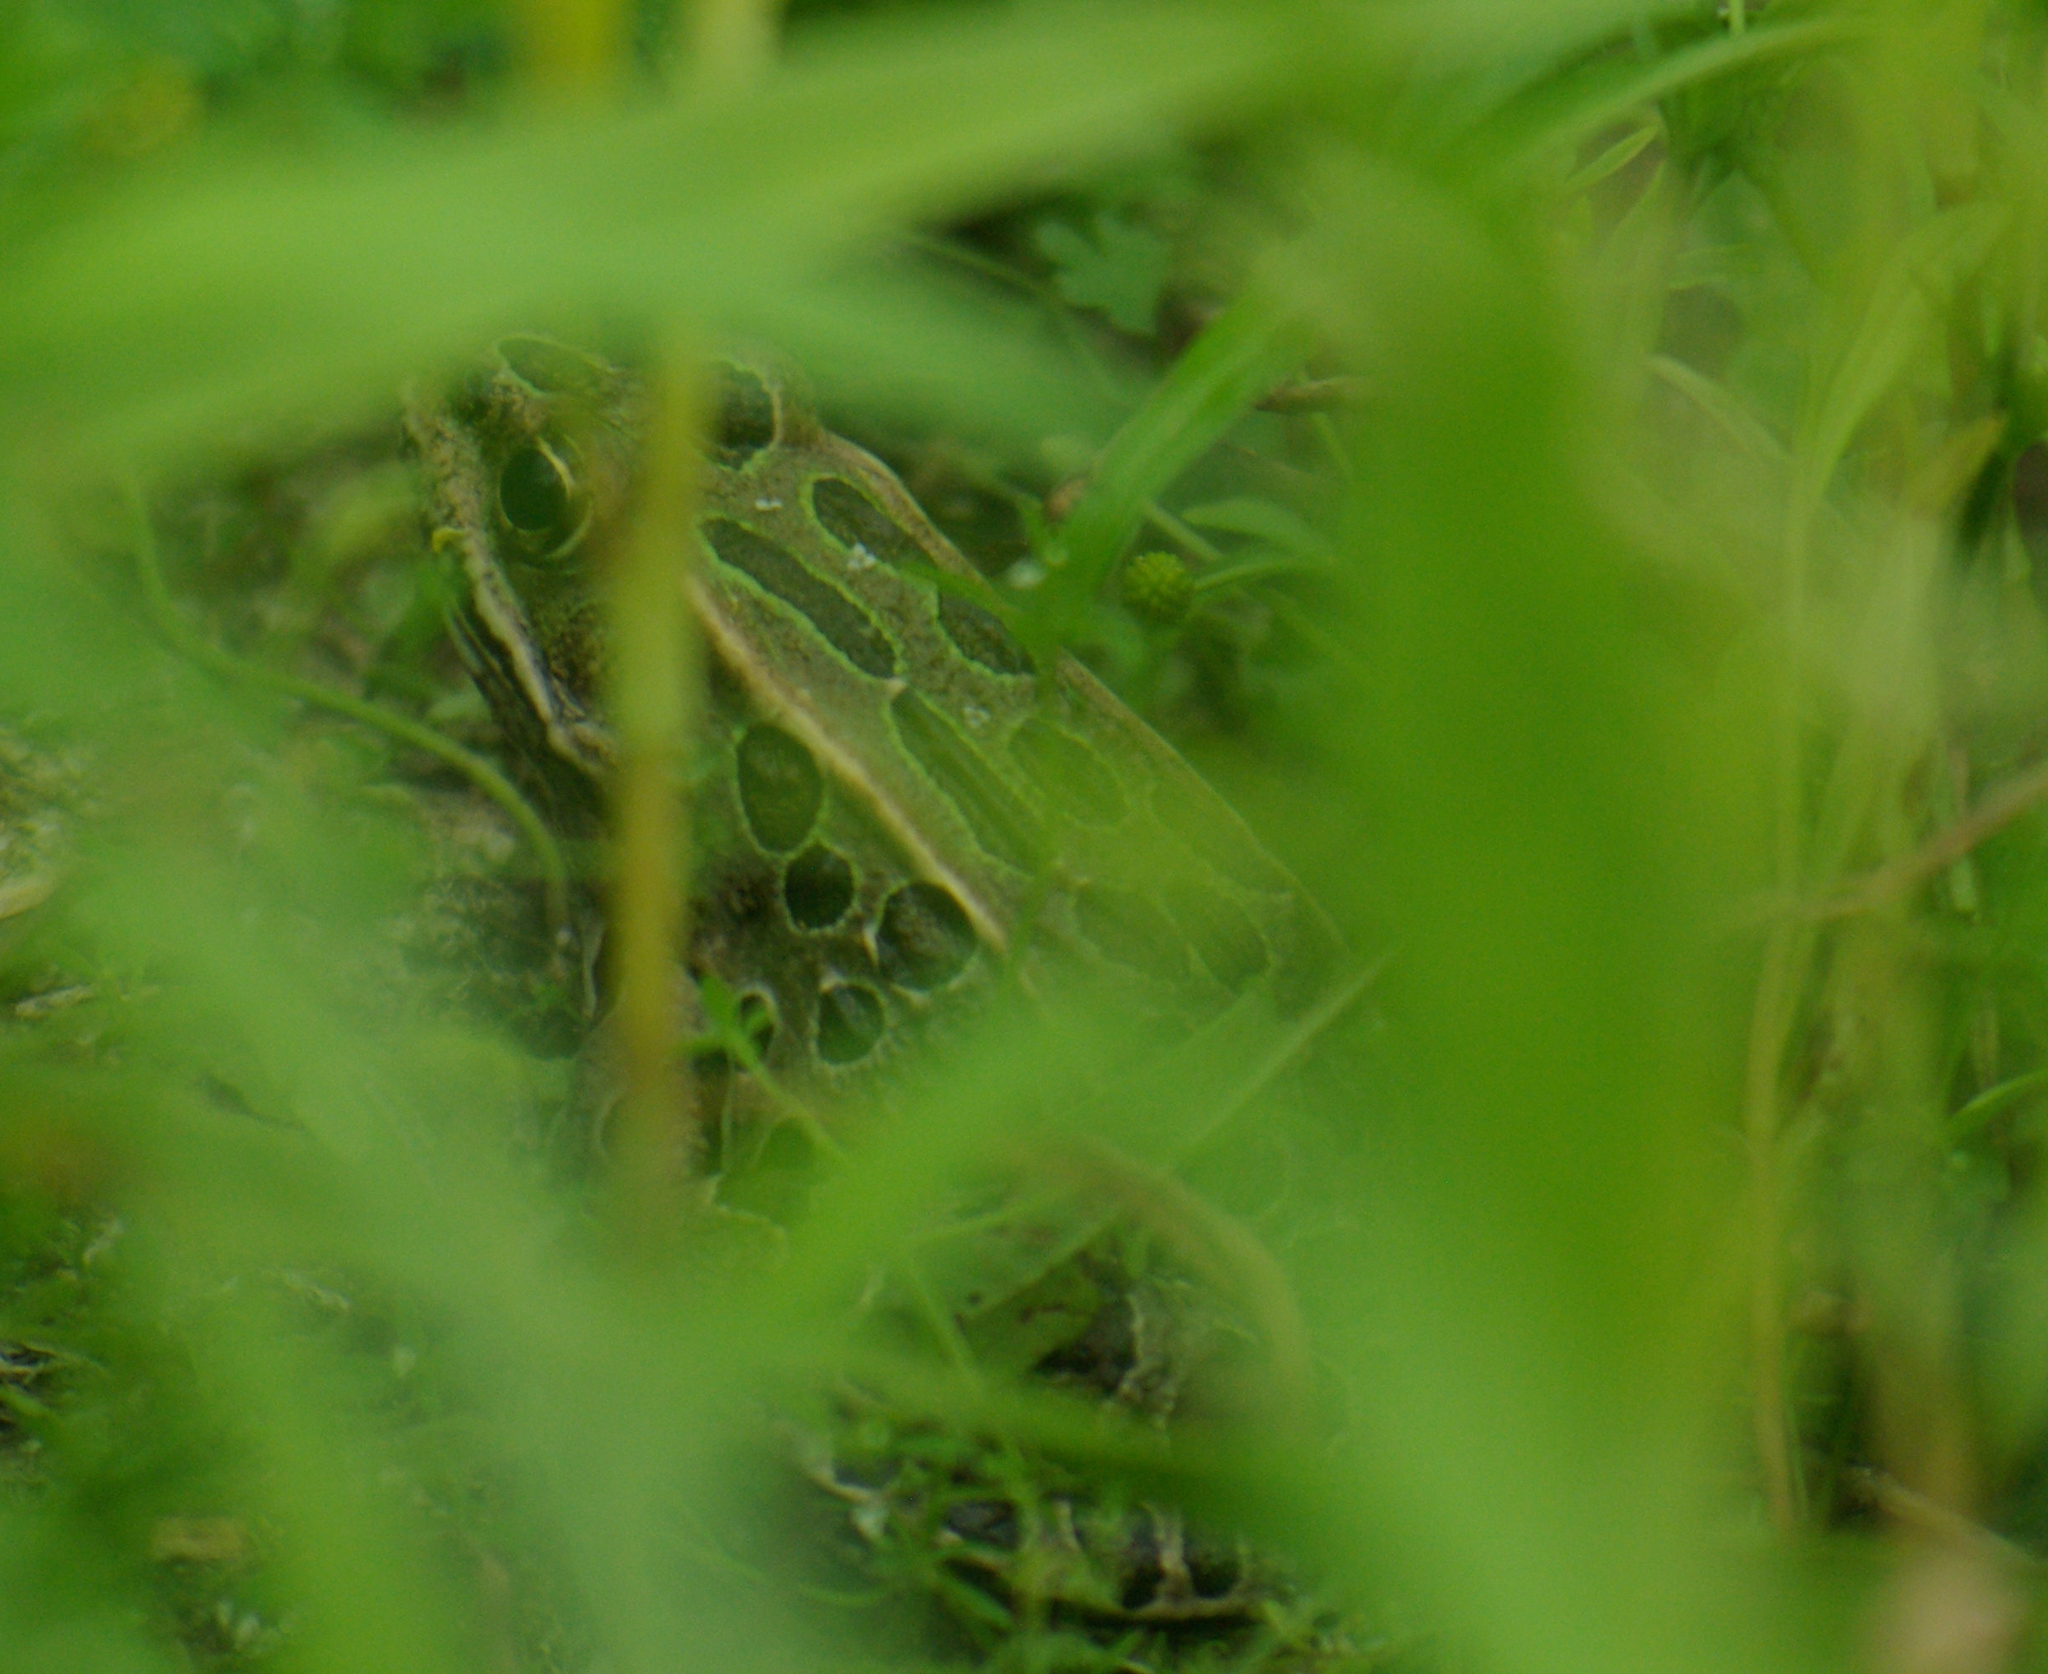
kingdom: Animalia
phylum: Chordata
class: Amphibia
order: Anura
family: Ranidae
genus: Lithobates
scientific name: Lithobates pipiens
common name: Northern leopard frog
